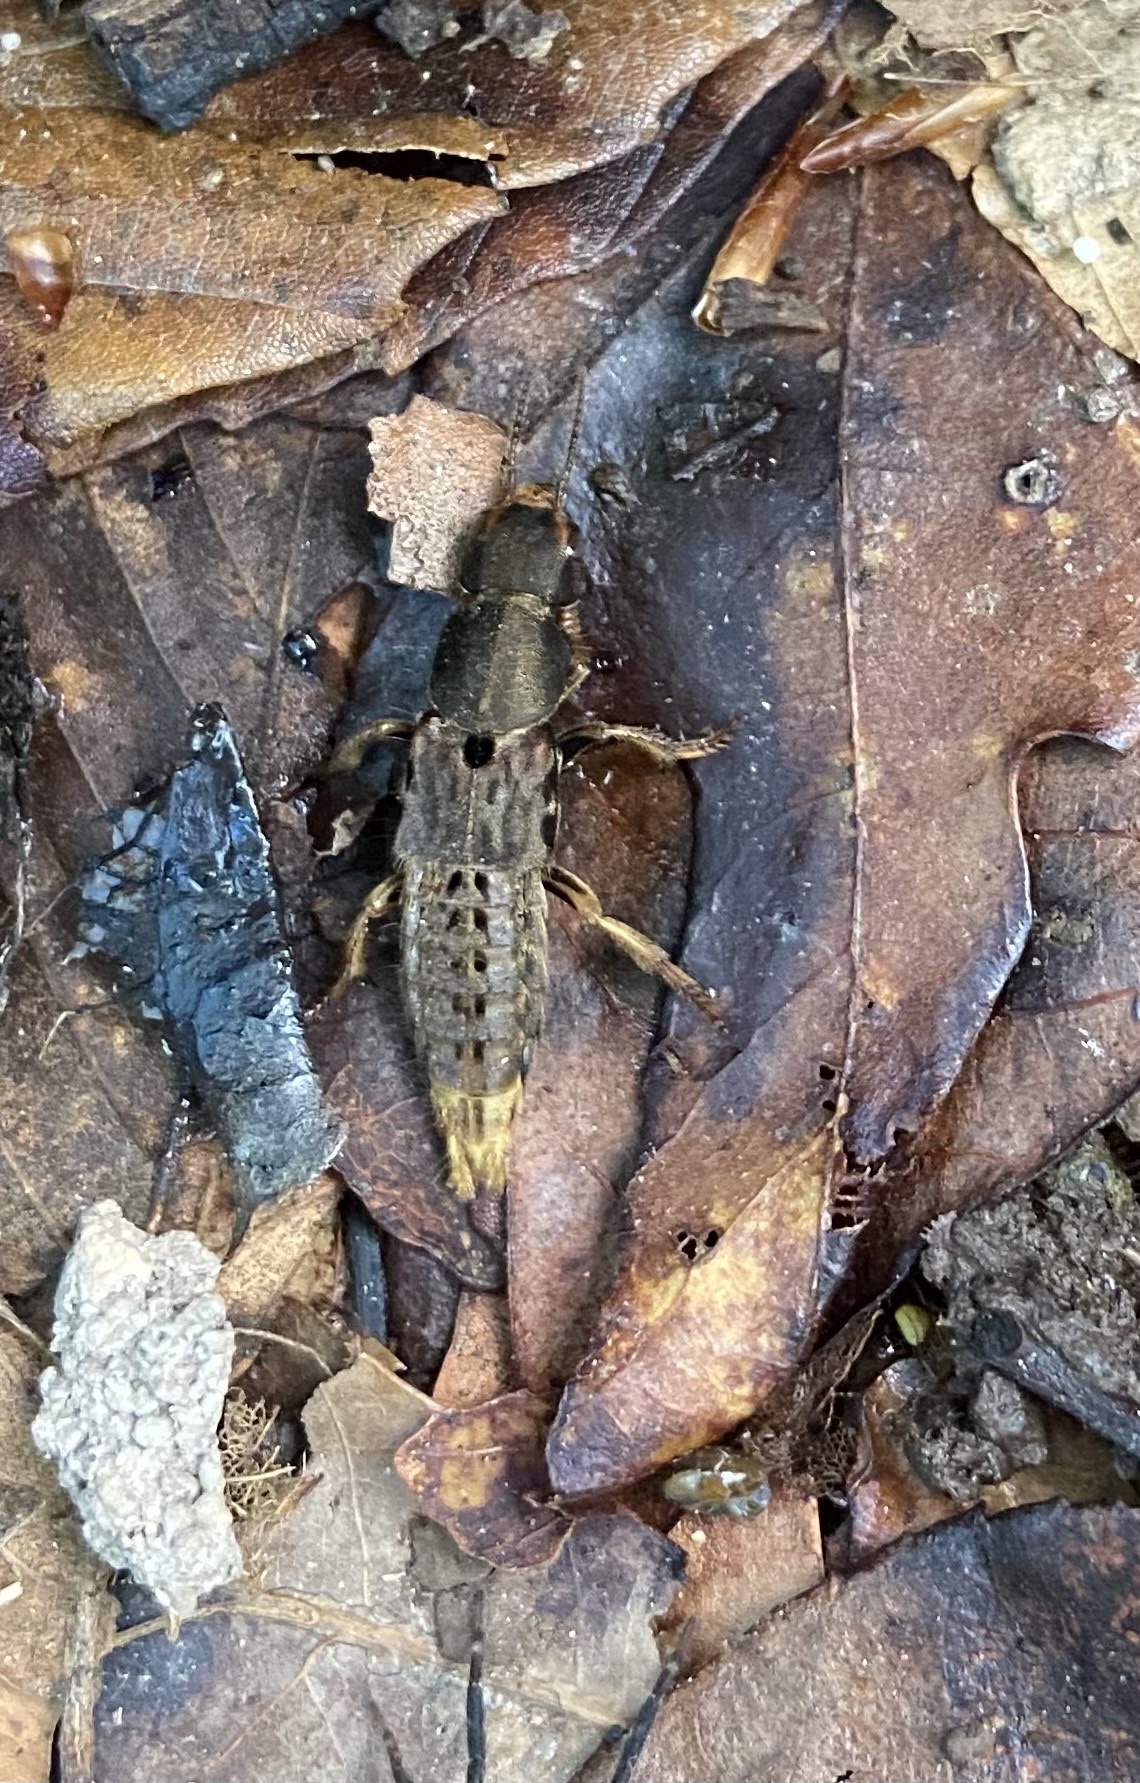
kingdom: Animalia
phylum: Arthropoda
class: Insecta
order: Coleoptera
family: Staphylinidae
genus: Platydracus
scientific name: Platydracus maculosus
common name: Brown rove beetle
